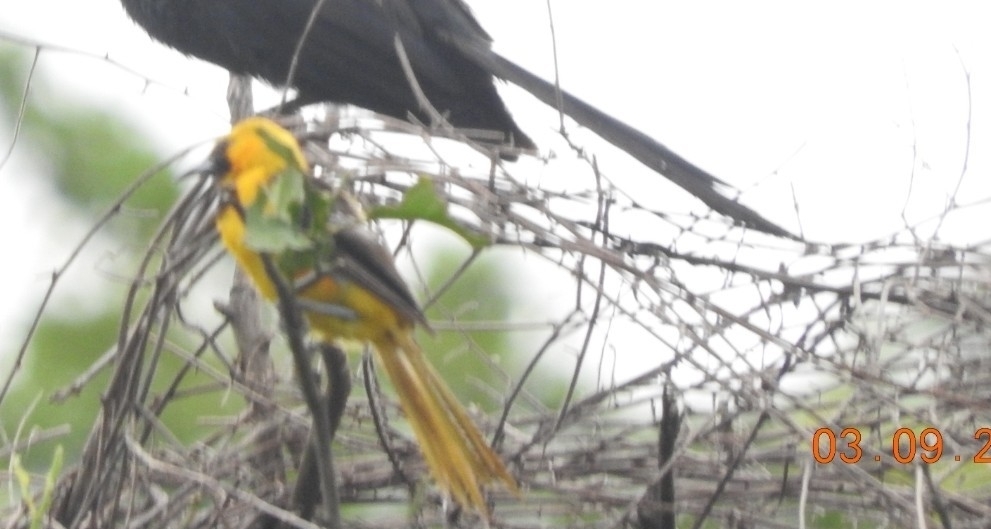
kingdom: Animalia
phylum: Chordata
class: Aves
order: Passeriformes
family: Icteridae
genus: Icterus
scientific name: Icterus cucullatus
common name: Hooded oriole
